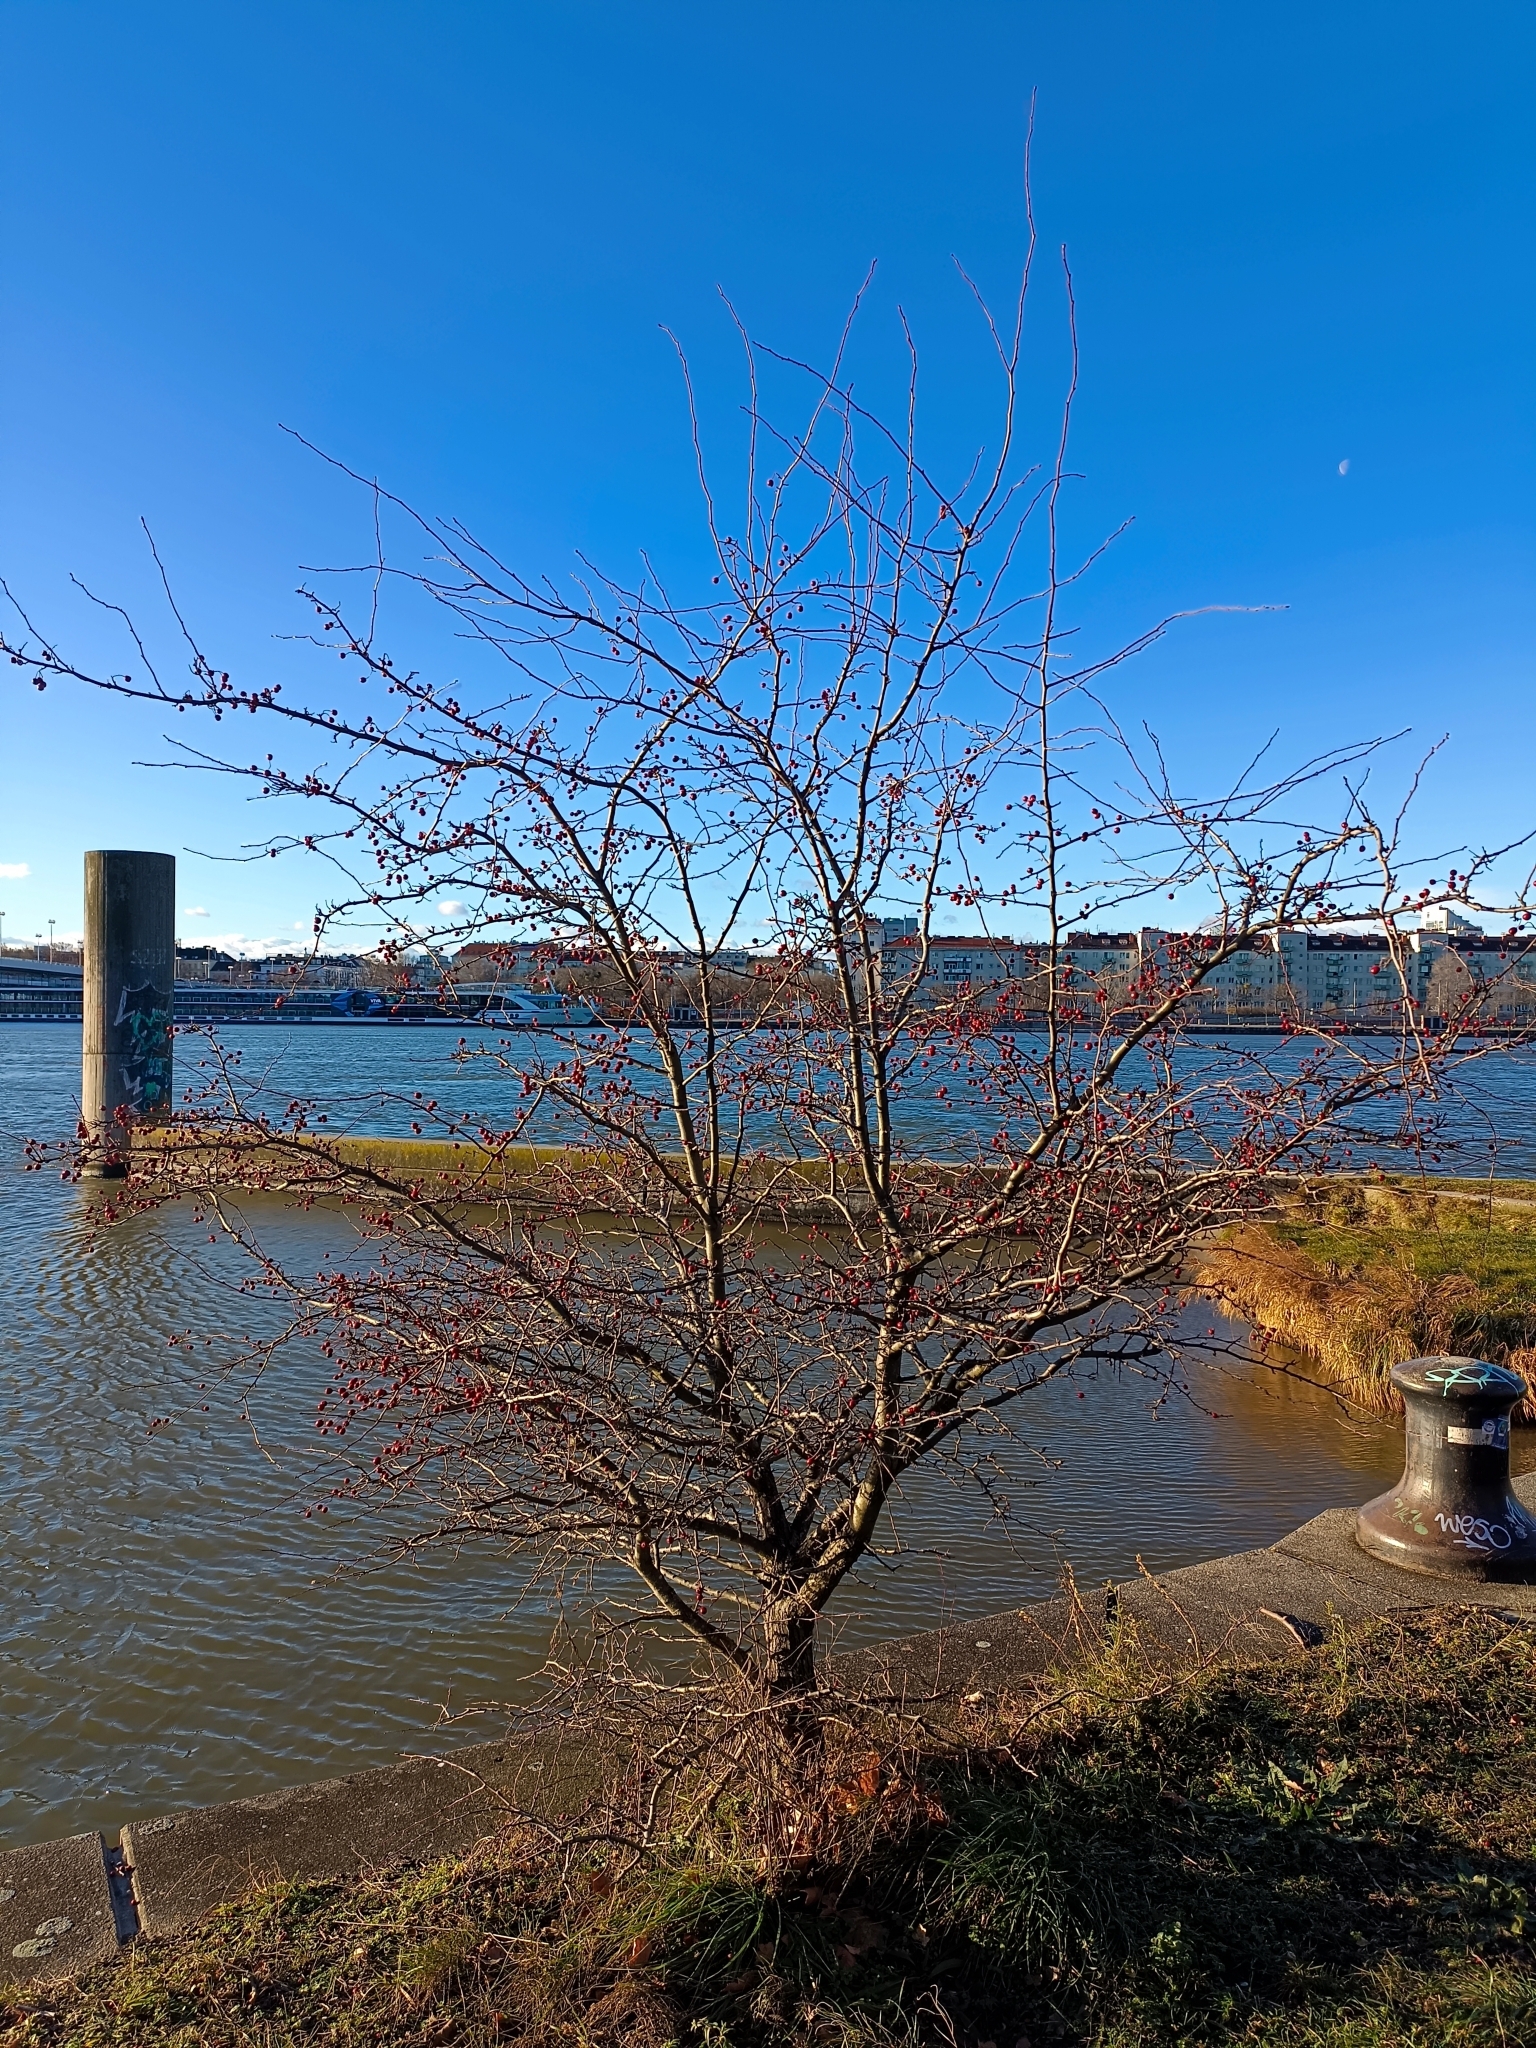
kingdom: Plantae
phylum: Tracheophyta
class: Magnoliopsida
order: Rosales
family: Rosaceae
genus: Crataegus
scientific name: Crataegus monogyna
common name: Hawthorn
